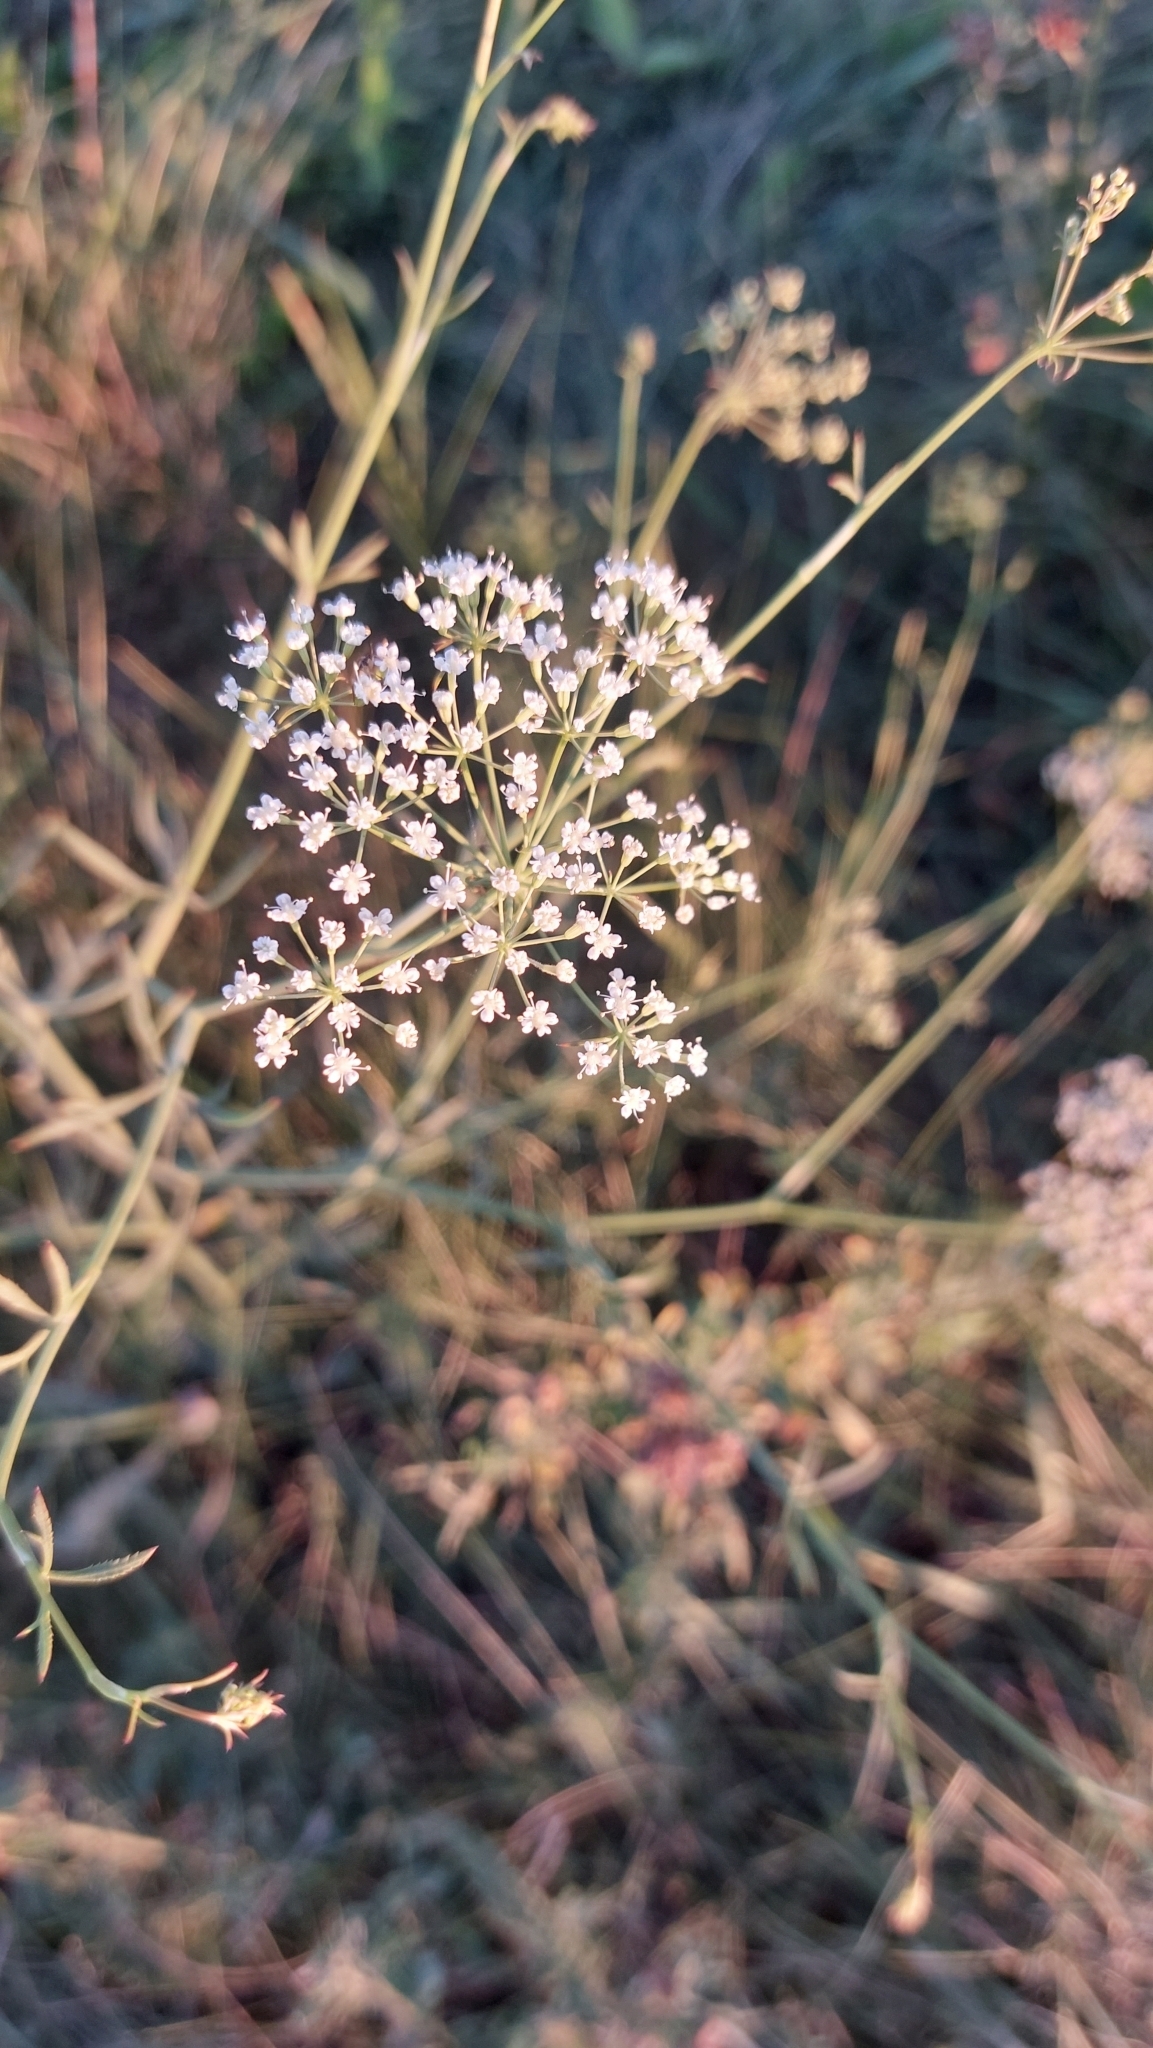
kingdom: Plantae
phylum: Tracheophyta
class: Magnoliopsida
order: Apiales
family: Apiaceae
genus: Falcaria
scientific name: Falcaria vulgaris
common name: Longleaf
